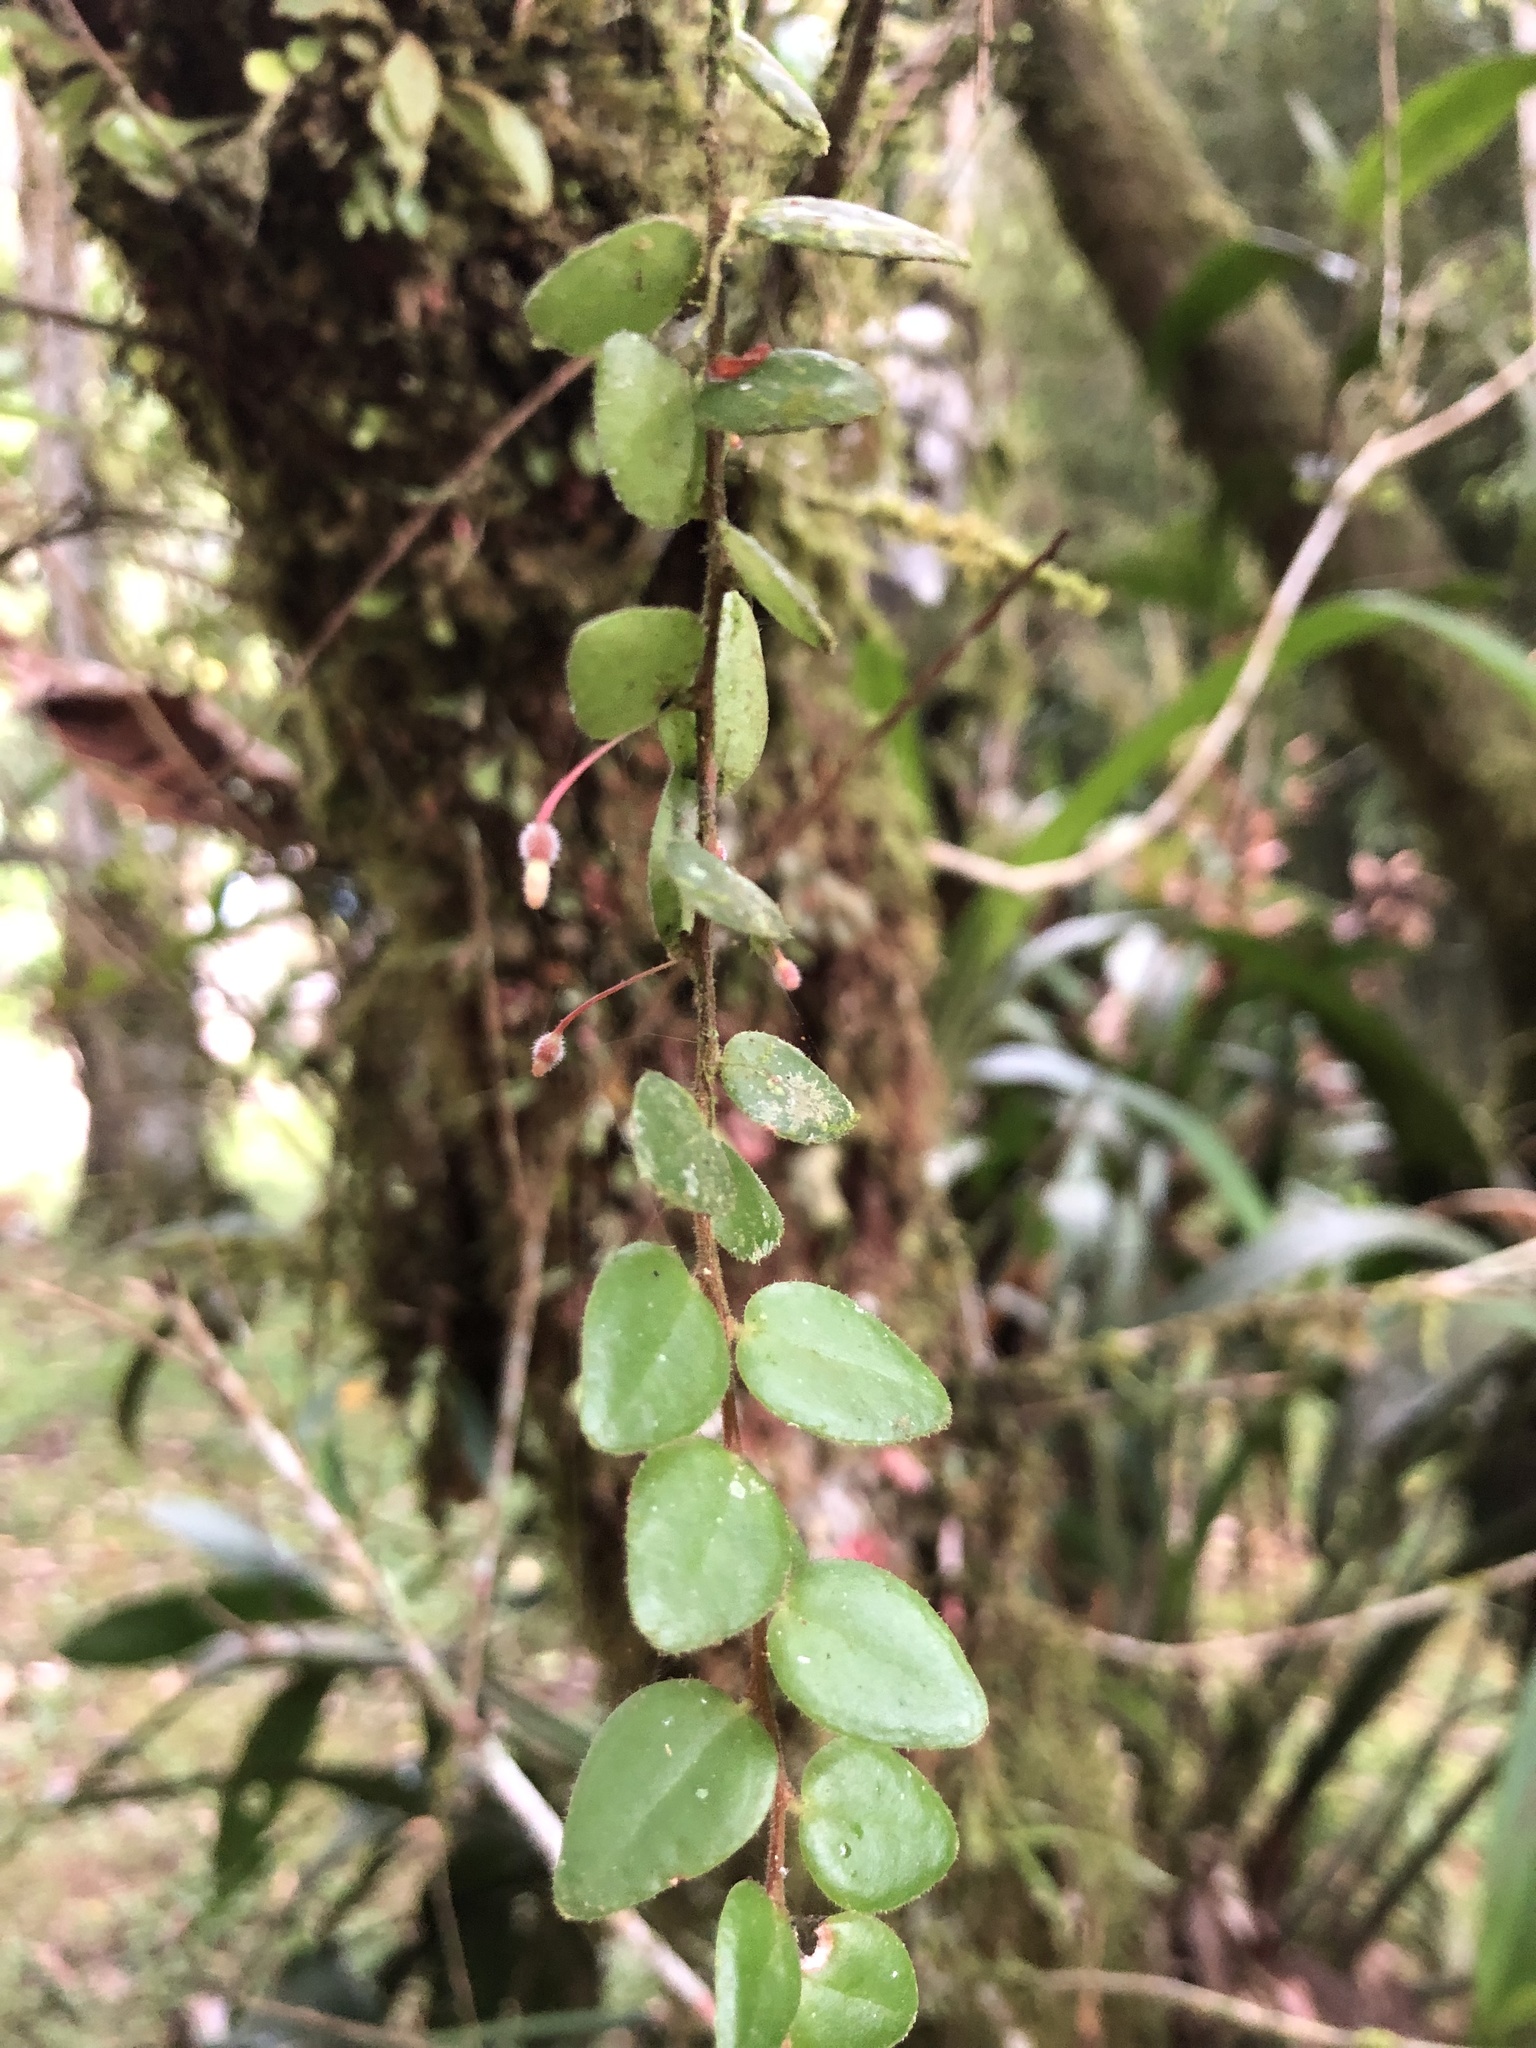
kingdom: Plantae
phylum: Tracheophyta
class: Magnoliopsida
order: Ericales
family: Ericaceae
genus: Sphyrospermum
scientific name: Sphyrospermum buxifolium
